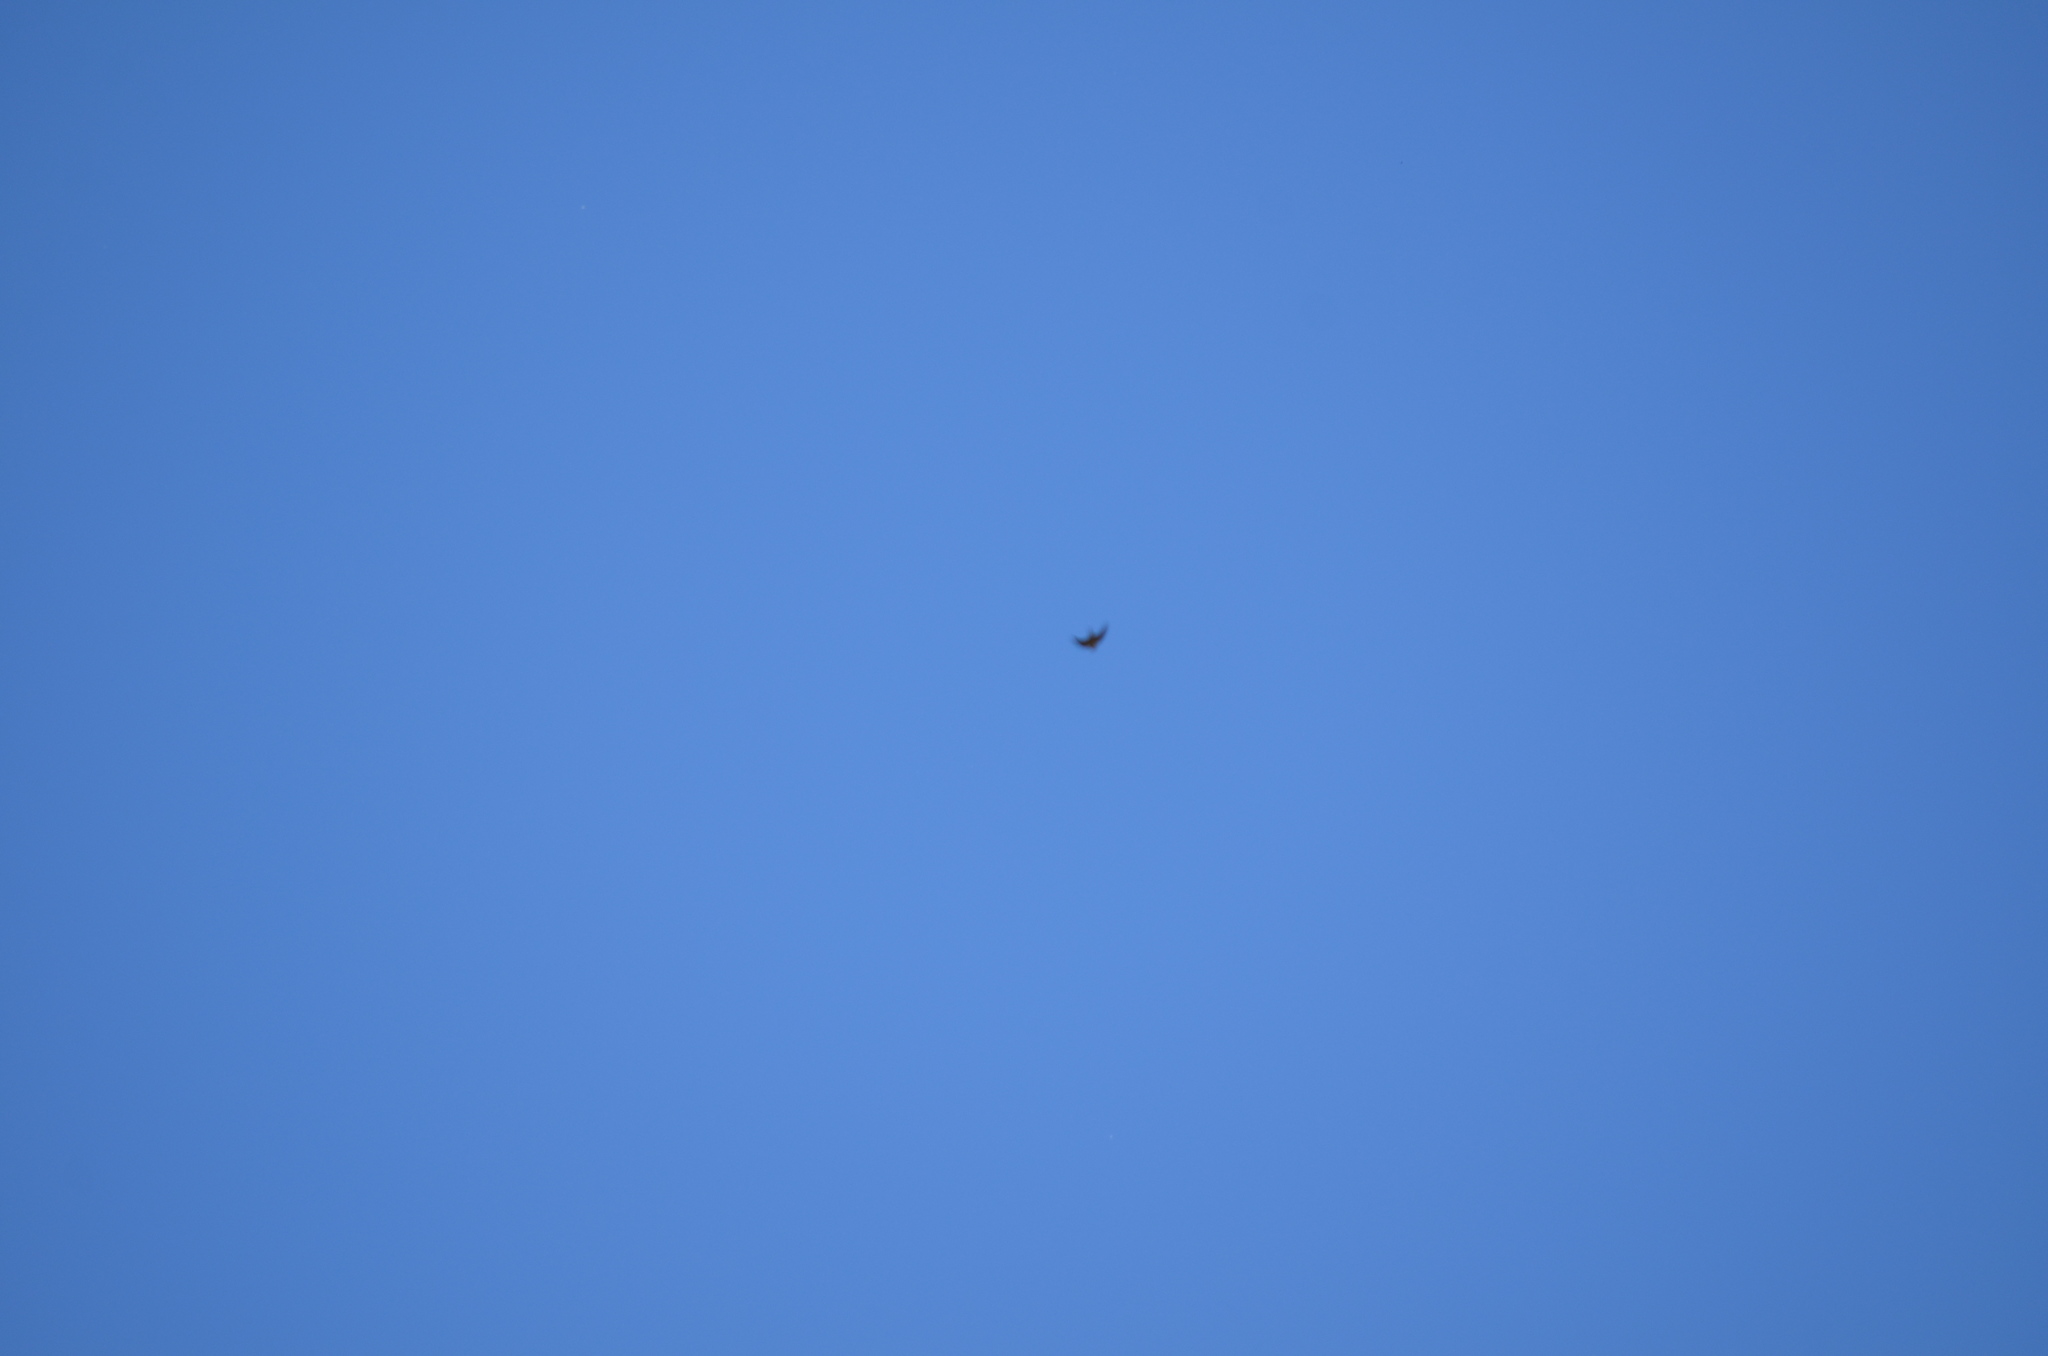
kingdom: Animalia
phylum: Chordata
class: Aves
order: Passeriformes
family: Hirundinidae
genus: Hirundo
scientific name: Hirundo rustica
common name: Barn swallow
